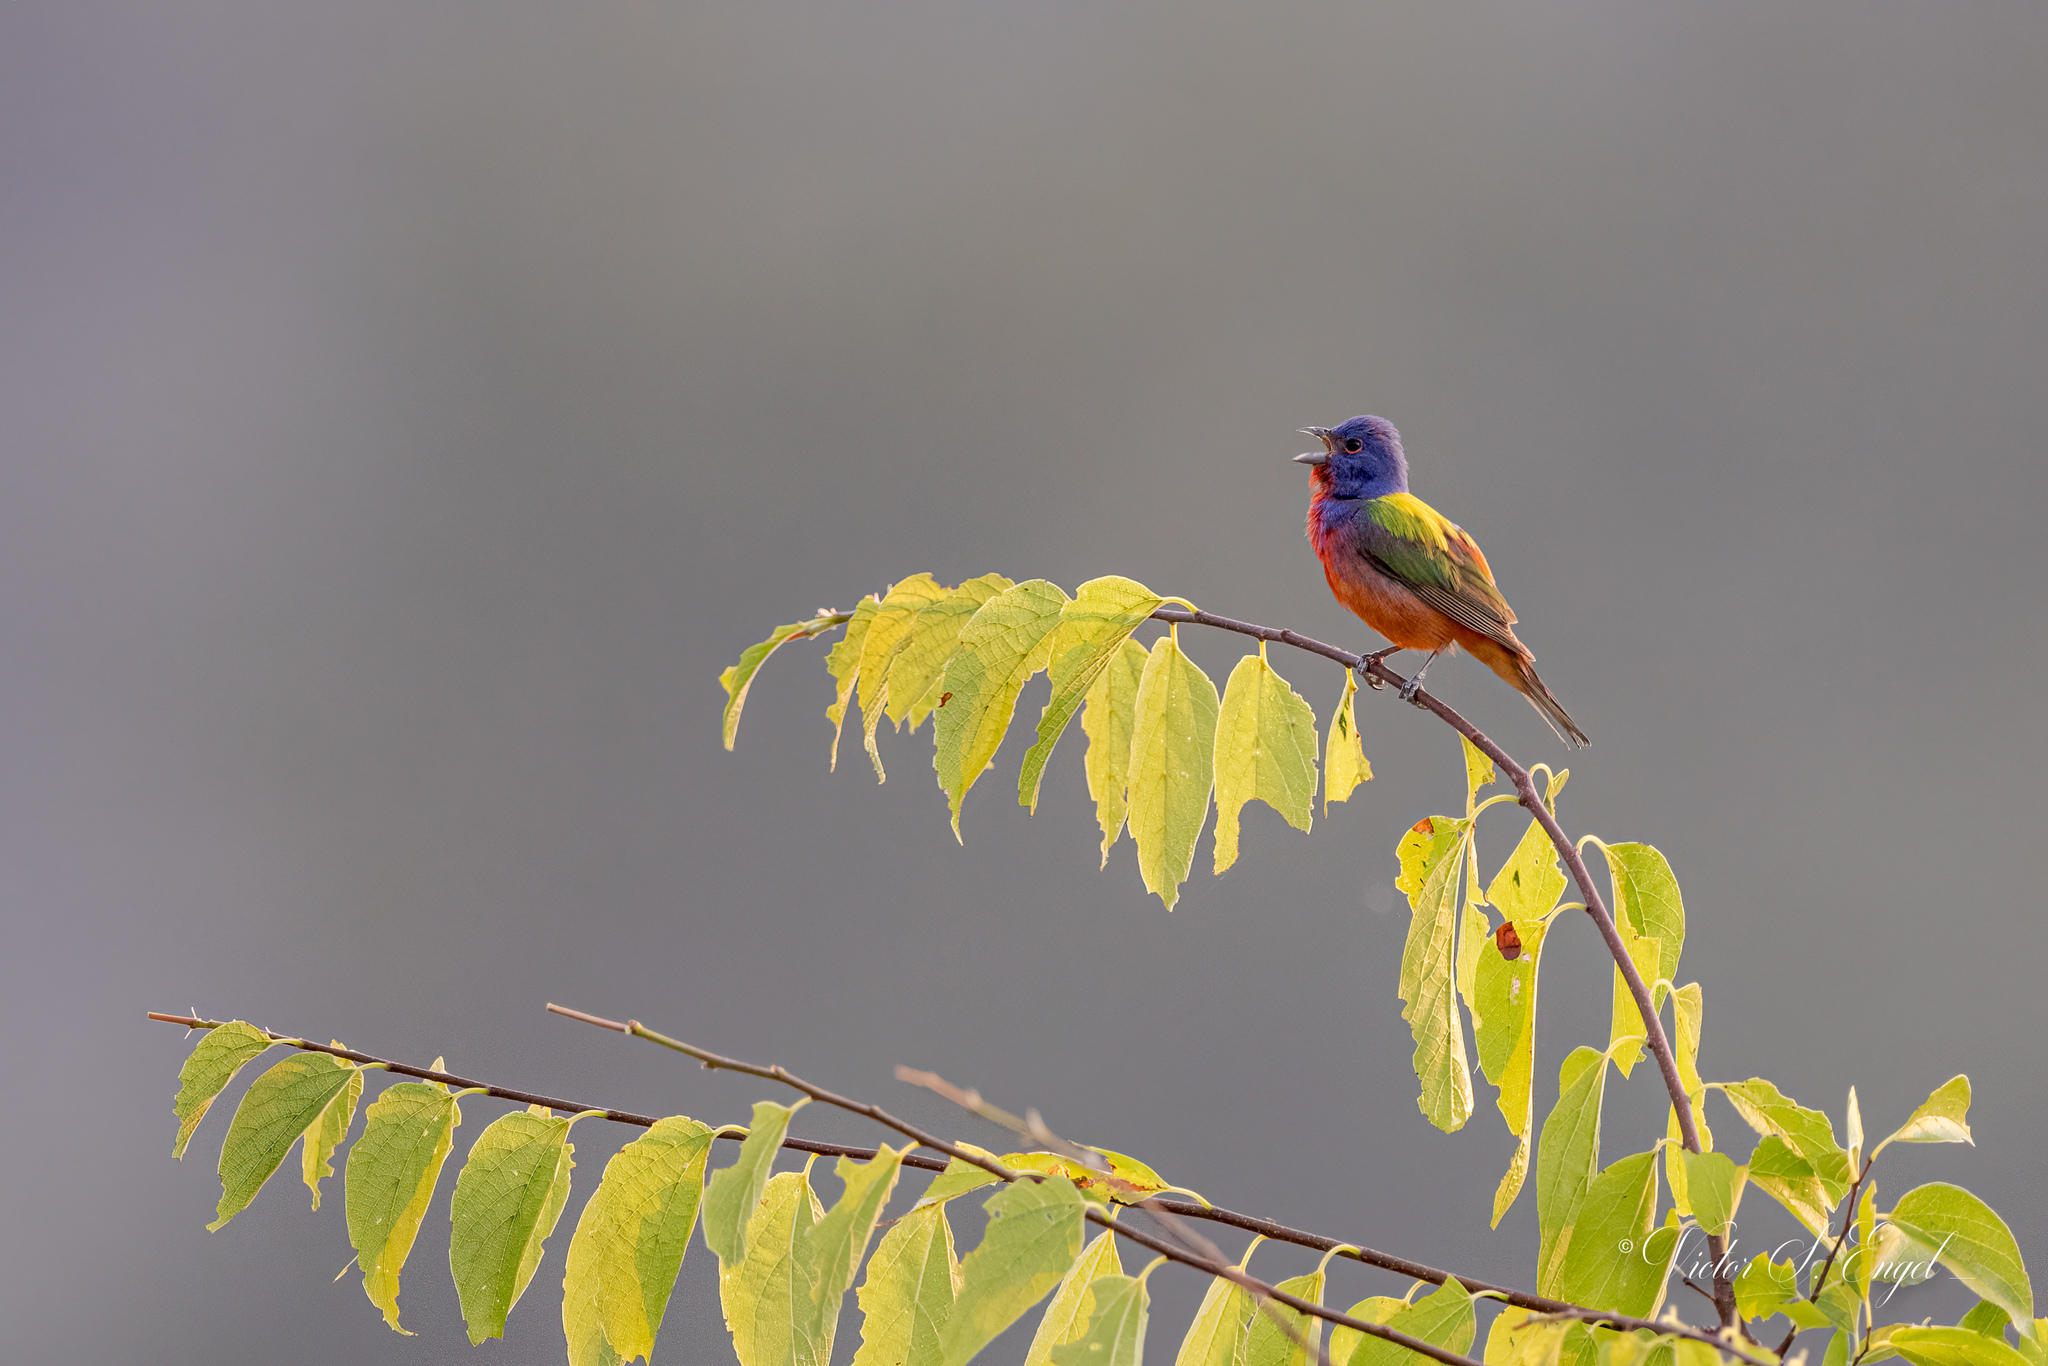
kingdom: Animalia
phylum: Chordata
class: Aves
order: Passeriformes
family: Cardinalidae
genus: Passerina
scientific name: Passerina ciris
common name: Painted bunting
